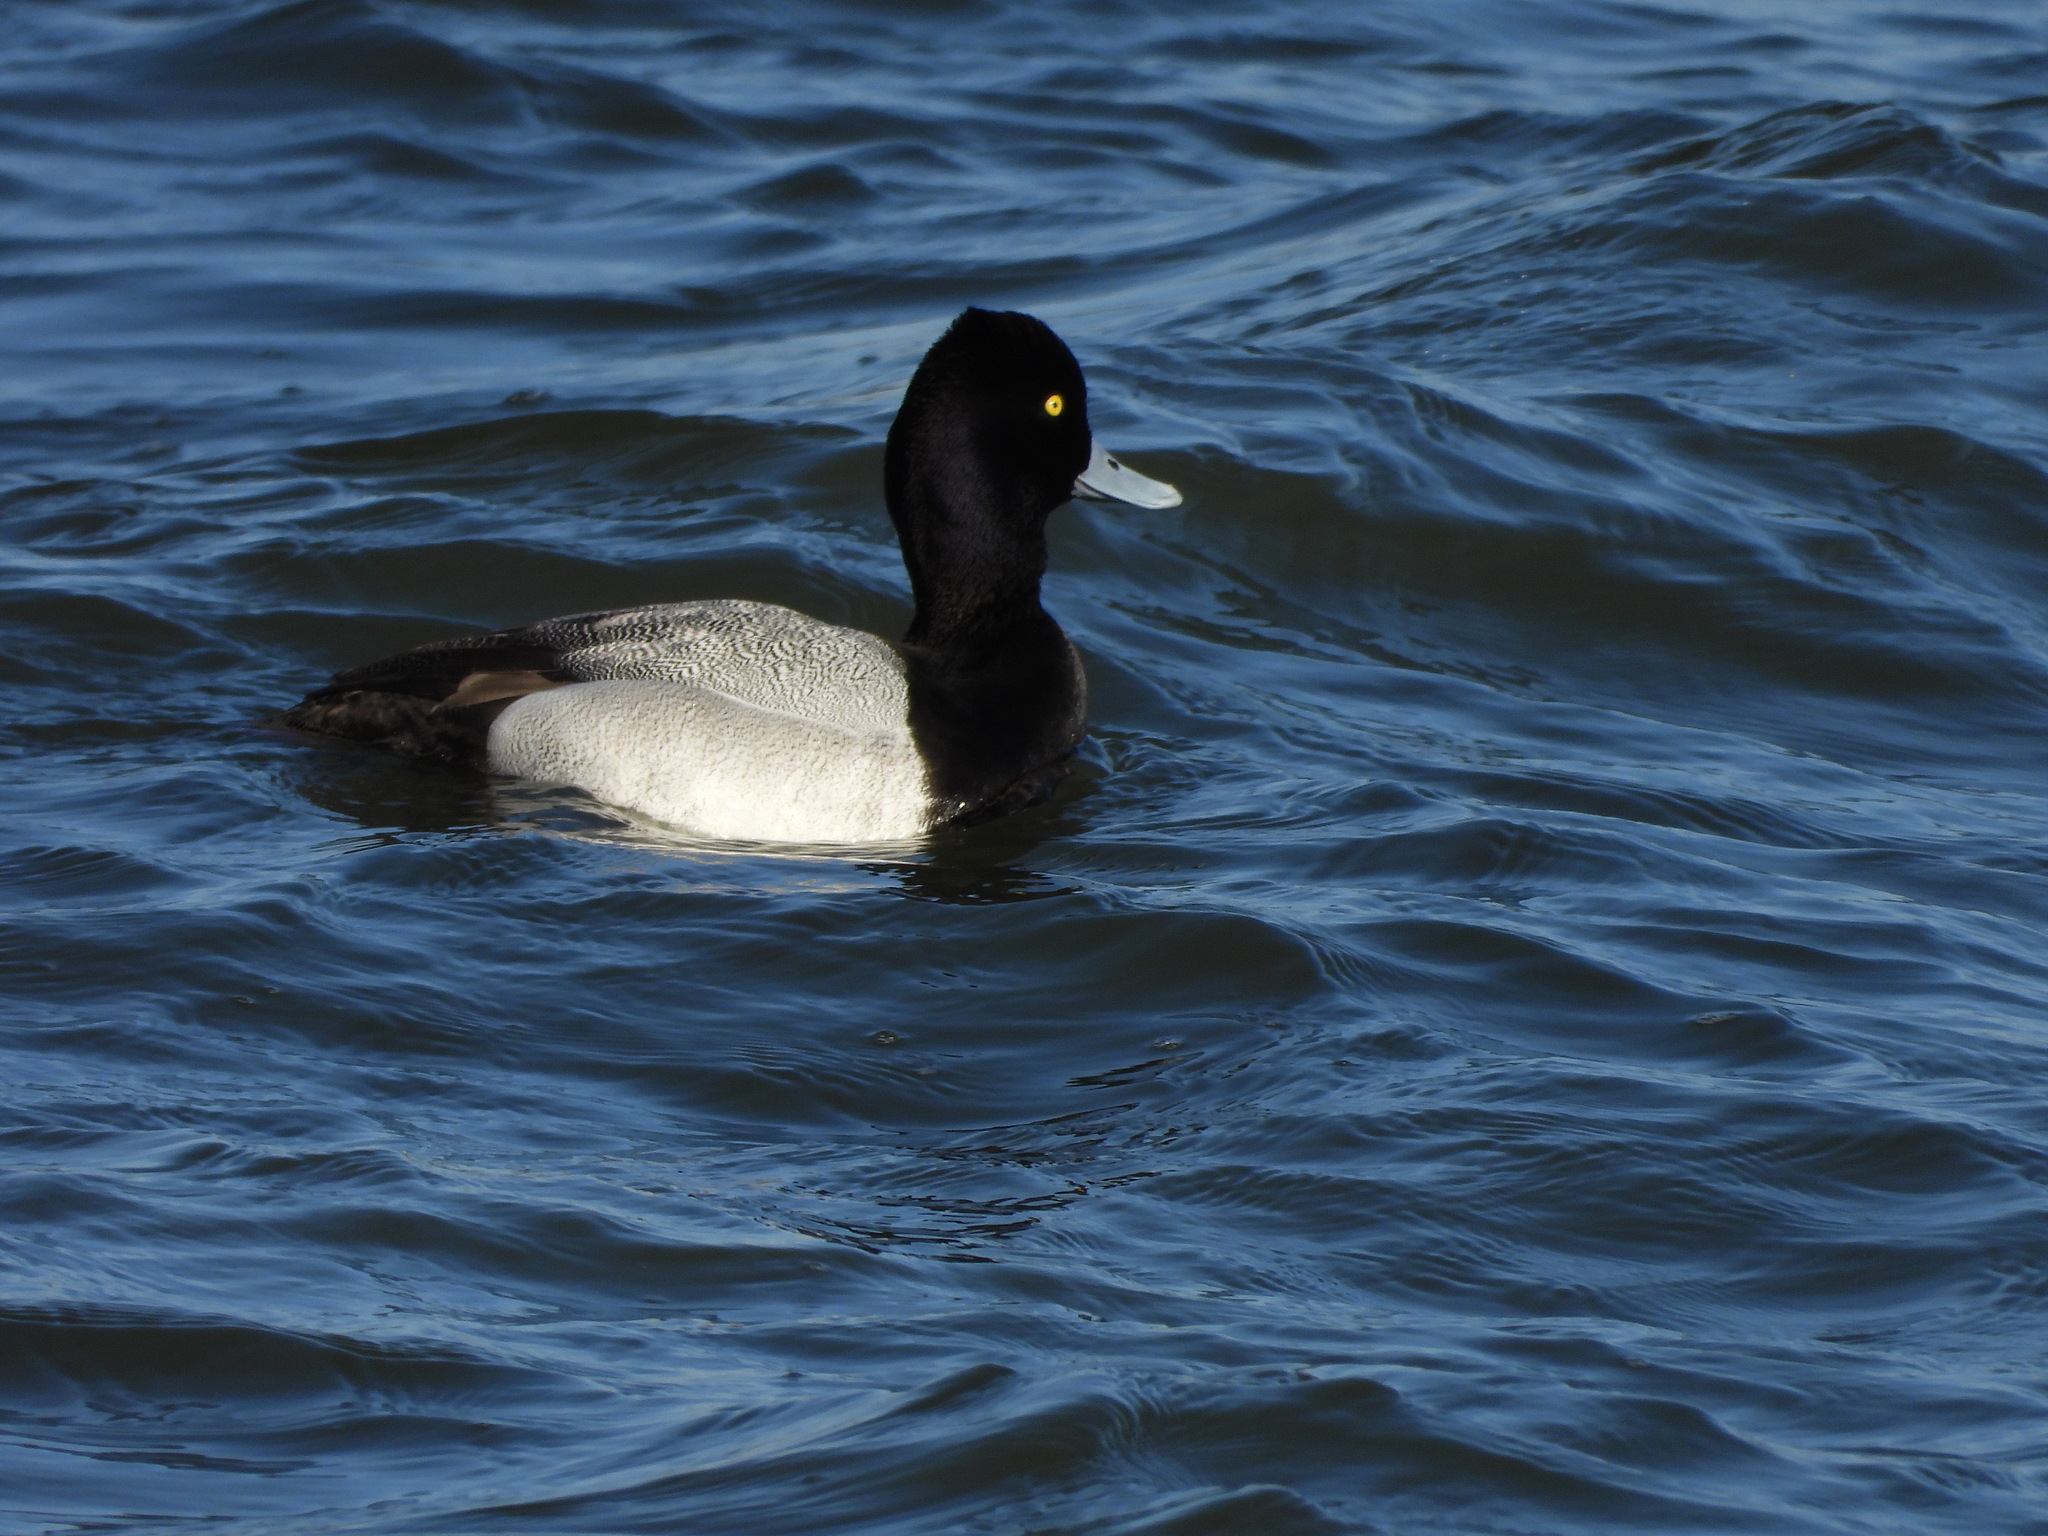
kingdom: Animalia
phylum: Chordata
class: Aves
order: Anseriformes
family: Anatidae
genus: Aythya
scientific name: Aythya affinis
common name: Lesser scaup
